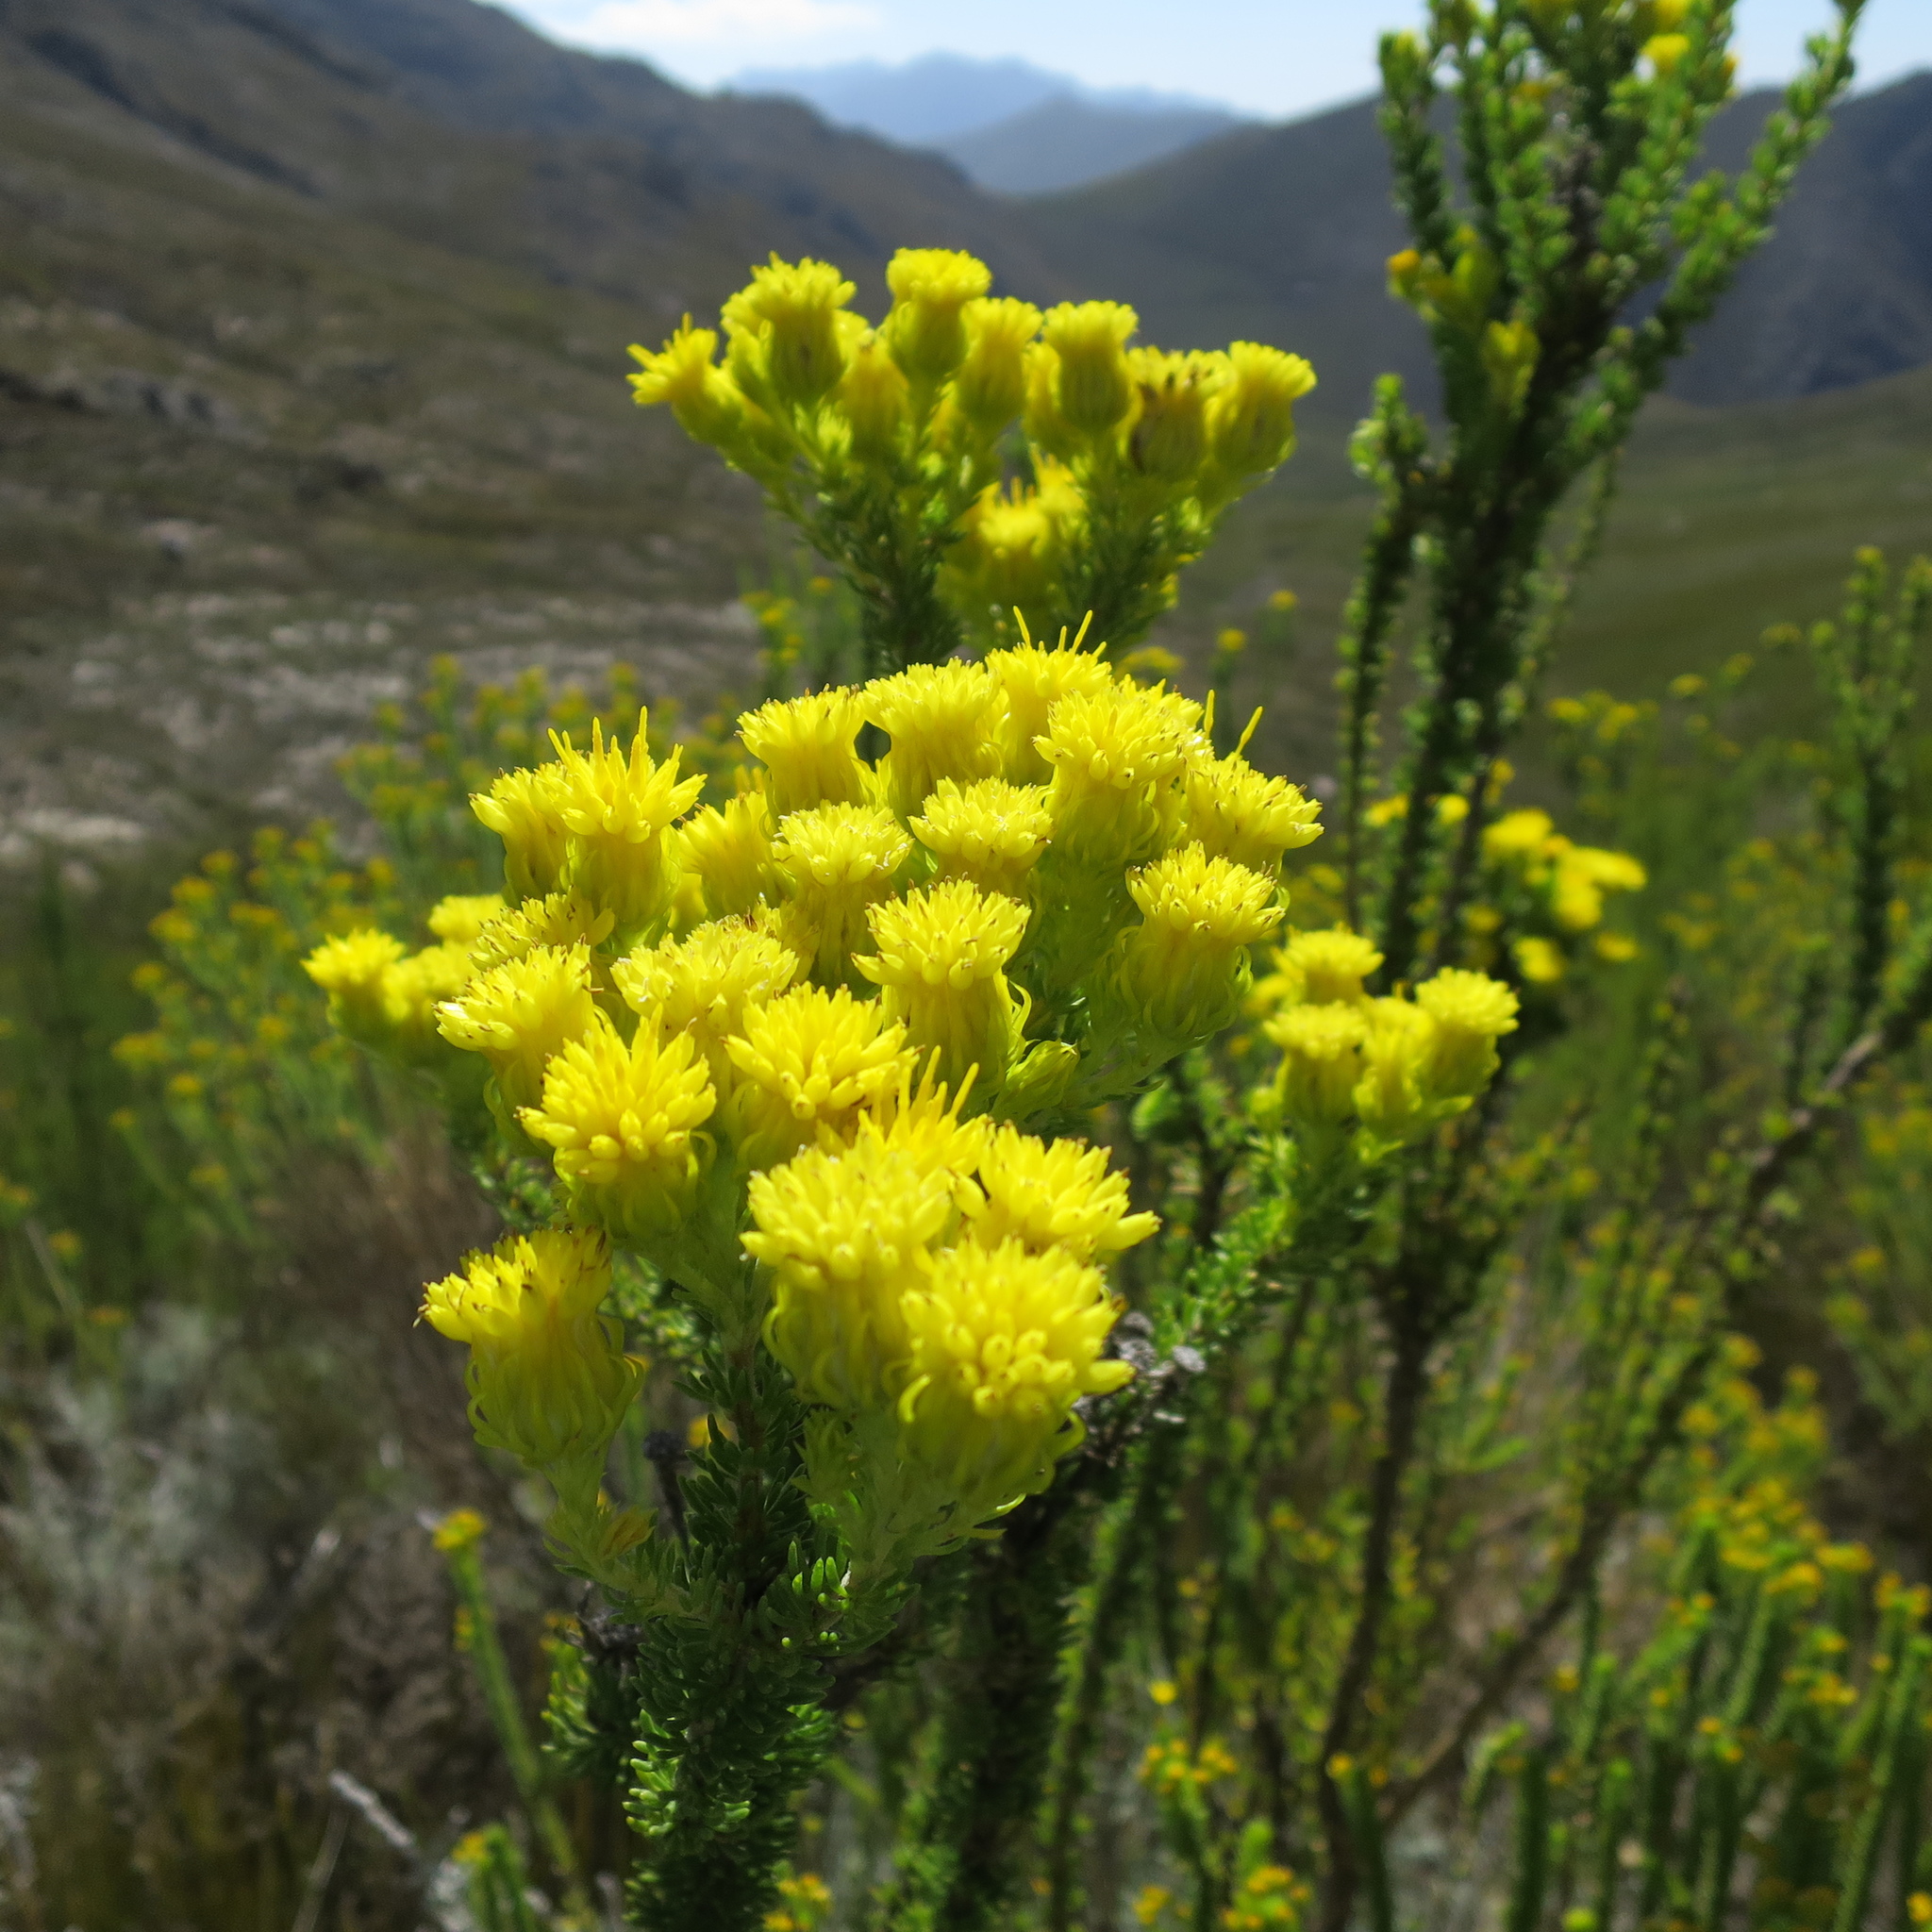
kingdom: Plantae
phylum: Tracheophyta
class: Magnoliopsida
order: Asterales
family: Asteraceae
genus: Pteronia
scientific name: Pteronia camphorata
